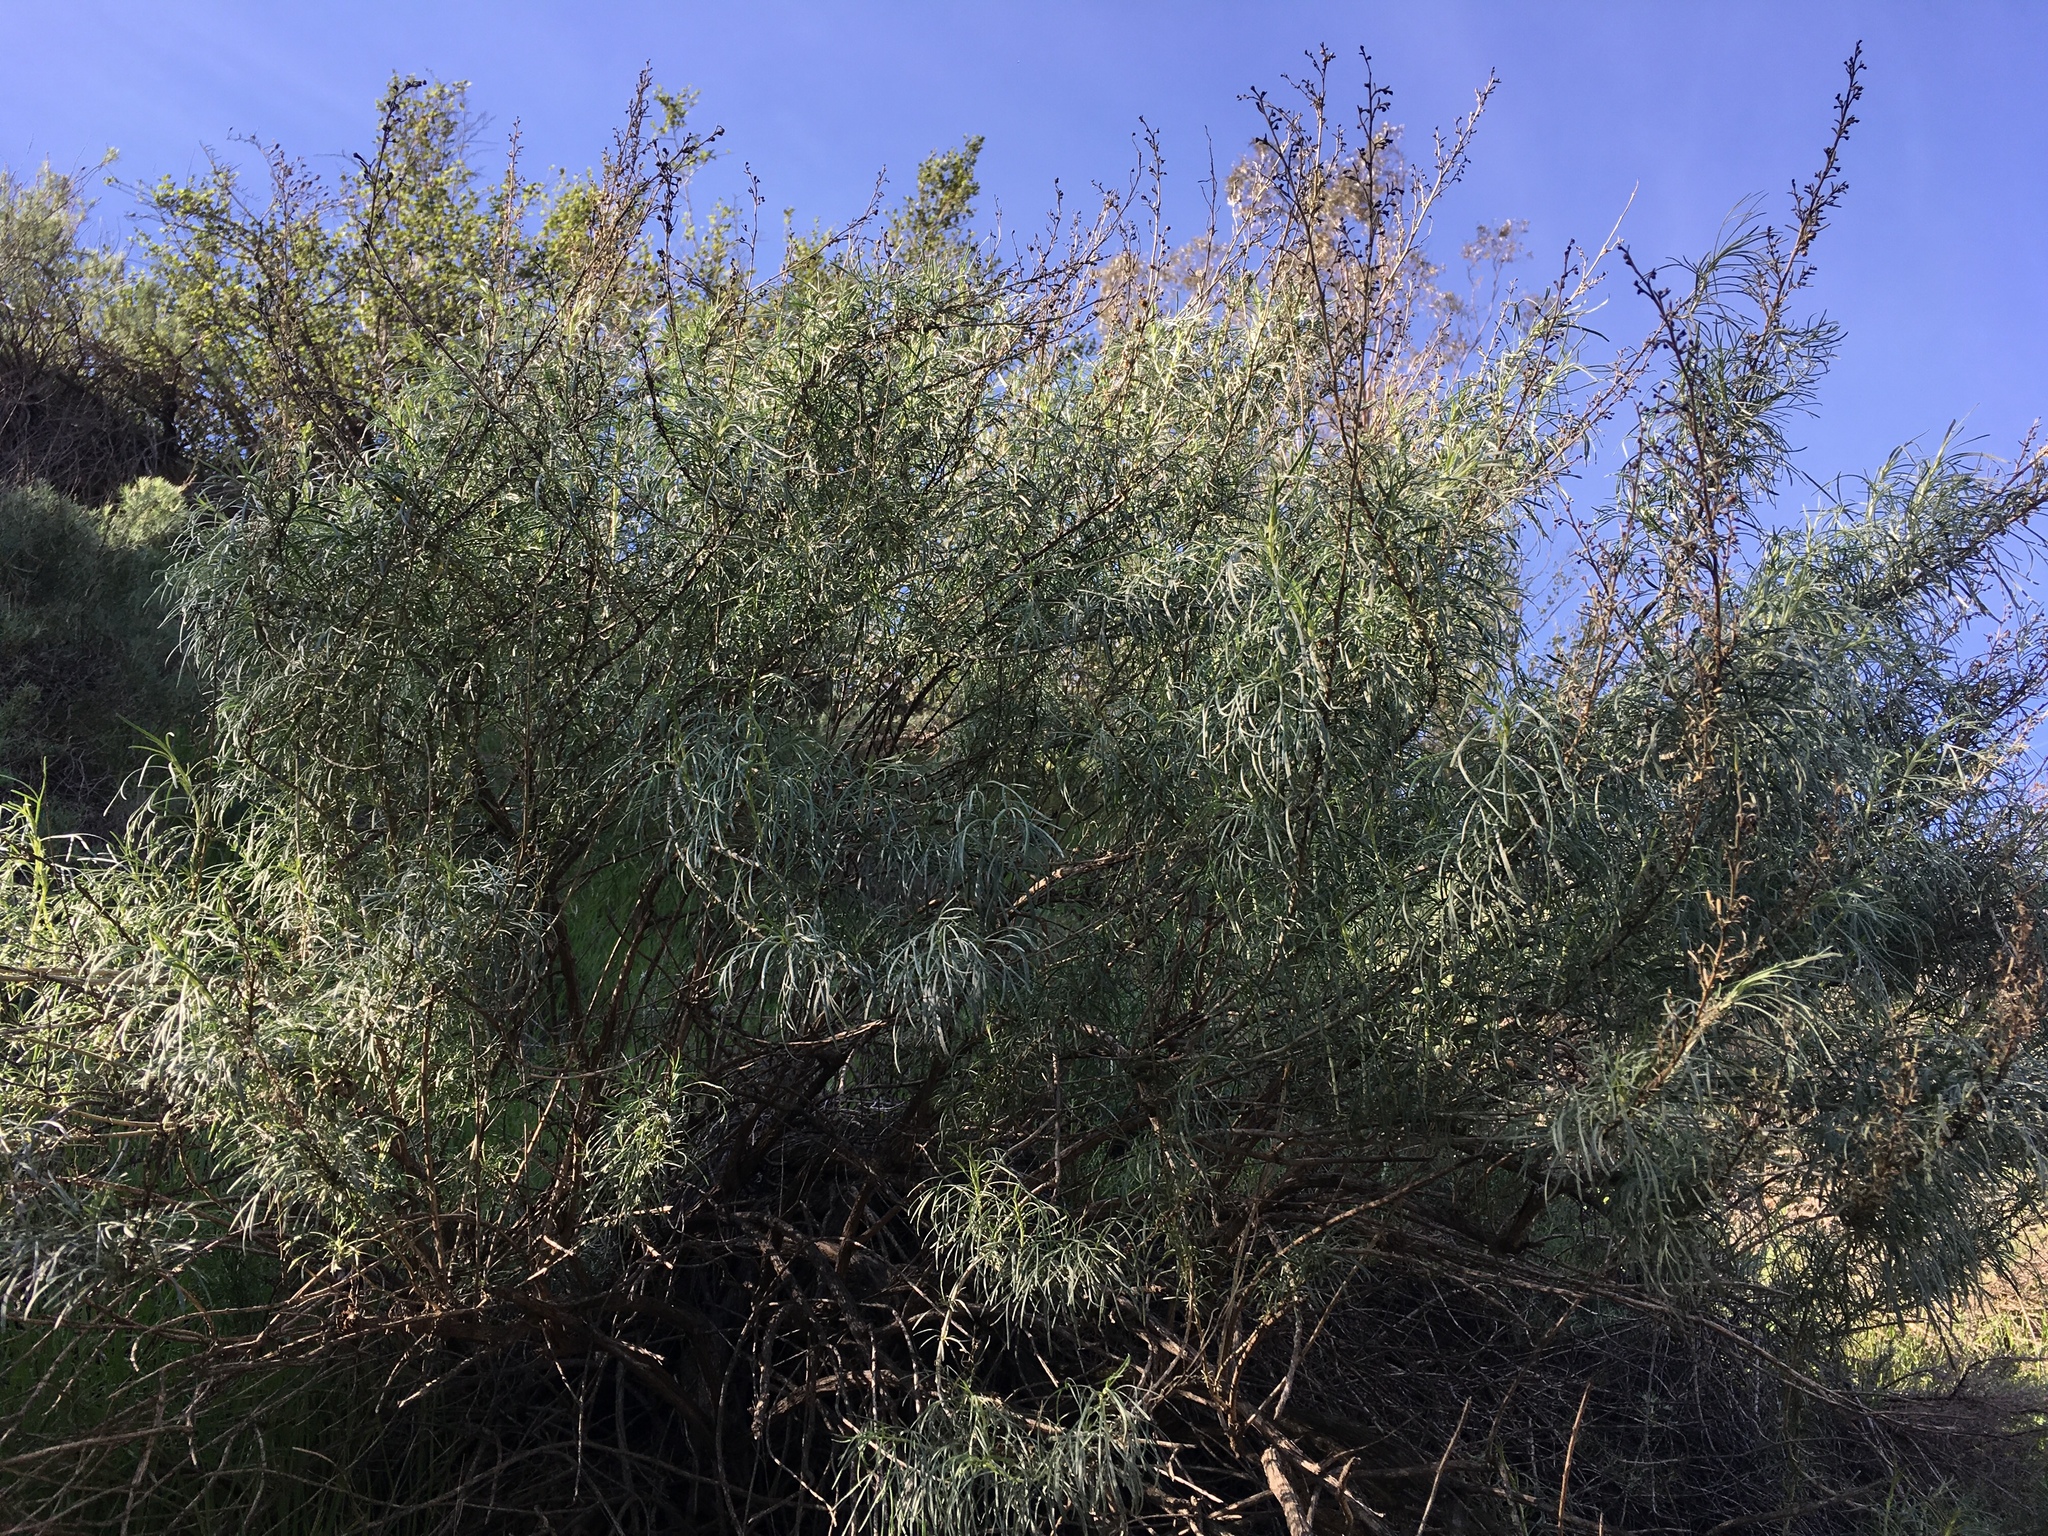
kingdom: Plantae
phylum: Tracheophyta
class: Magnoliopsida
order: Asterales
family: Asteraceae
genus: Artemisia
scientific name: Artemisia californica
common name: California sagebrush
